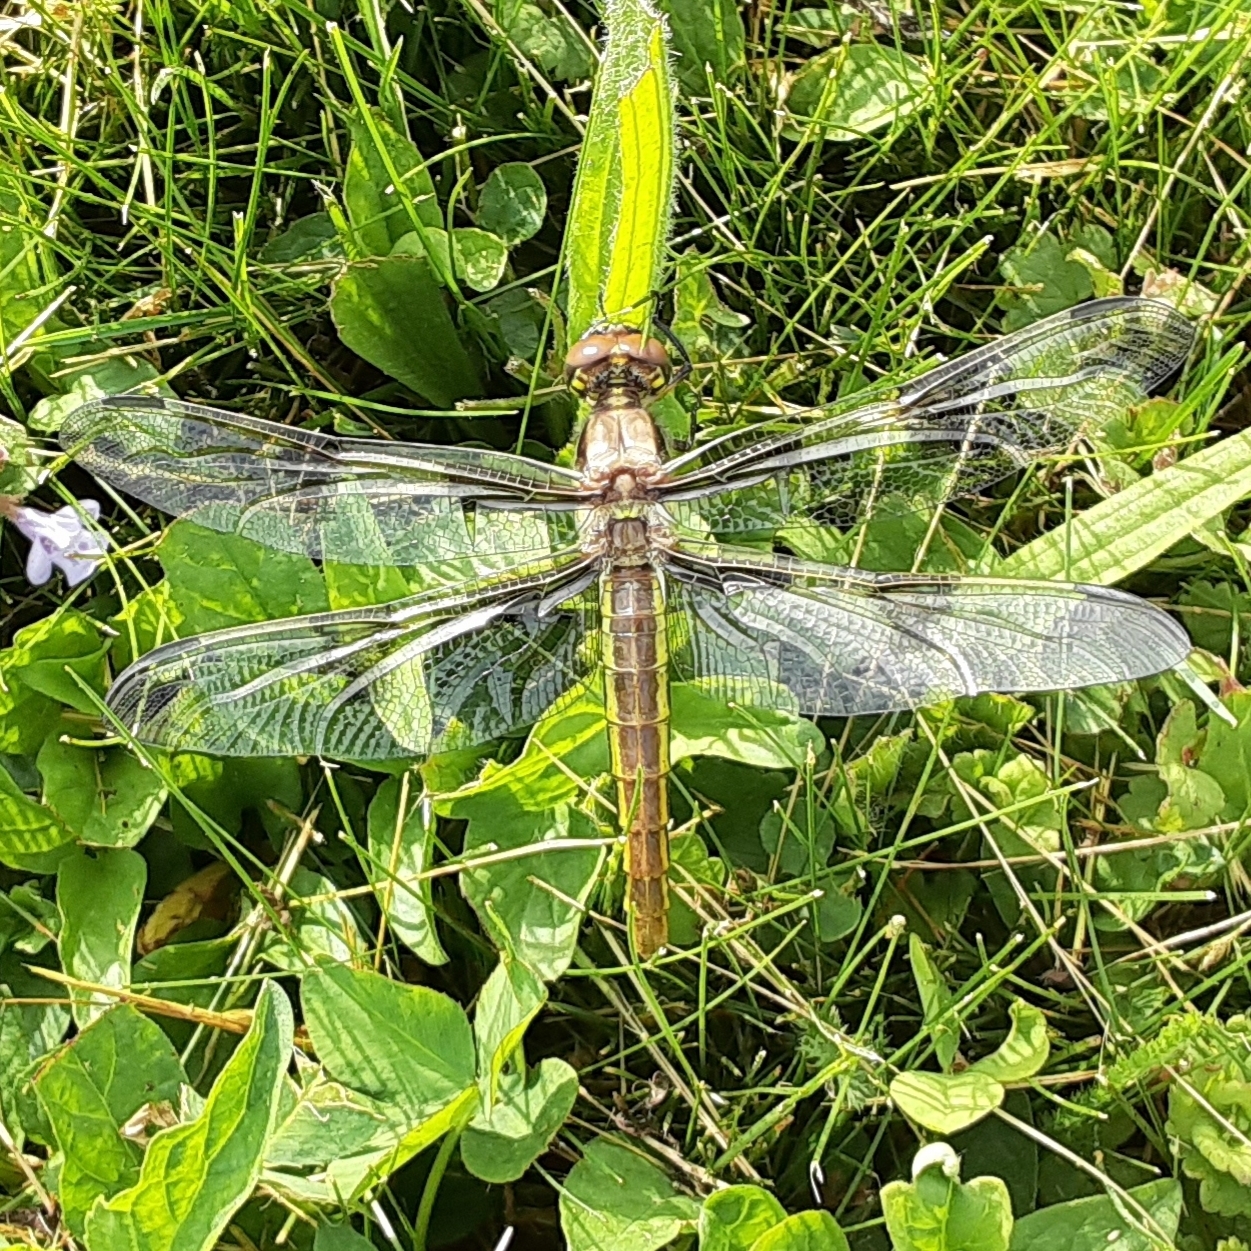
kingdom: Animalia
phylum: Arthropoda
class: Insecta
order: Odonata
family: Libellulidae
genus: Libellula
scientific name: Libellula pulchella
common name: Twelve-spotted skimmer
